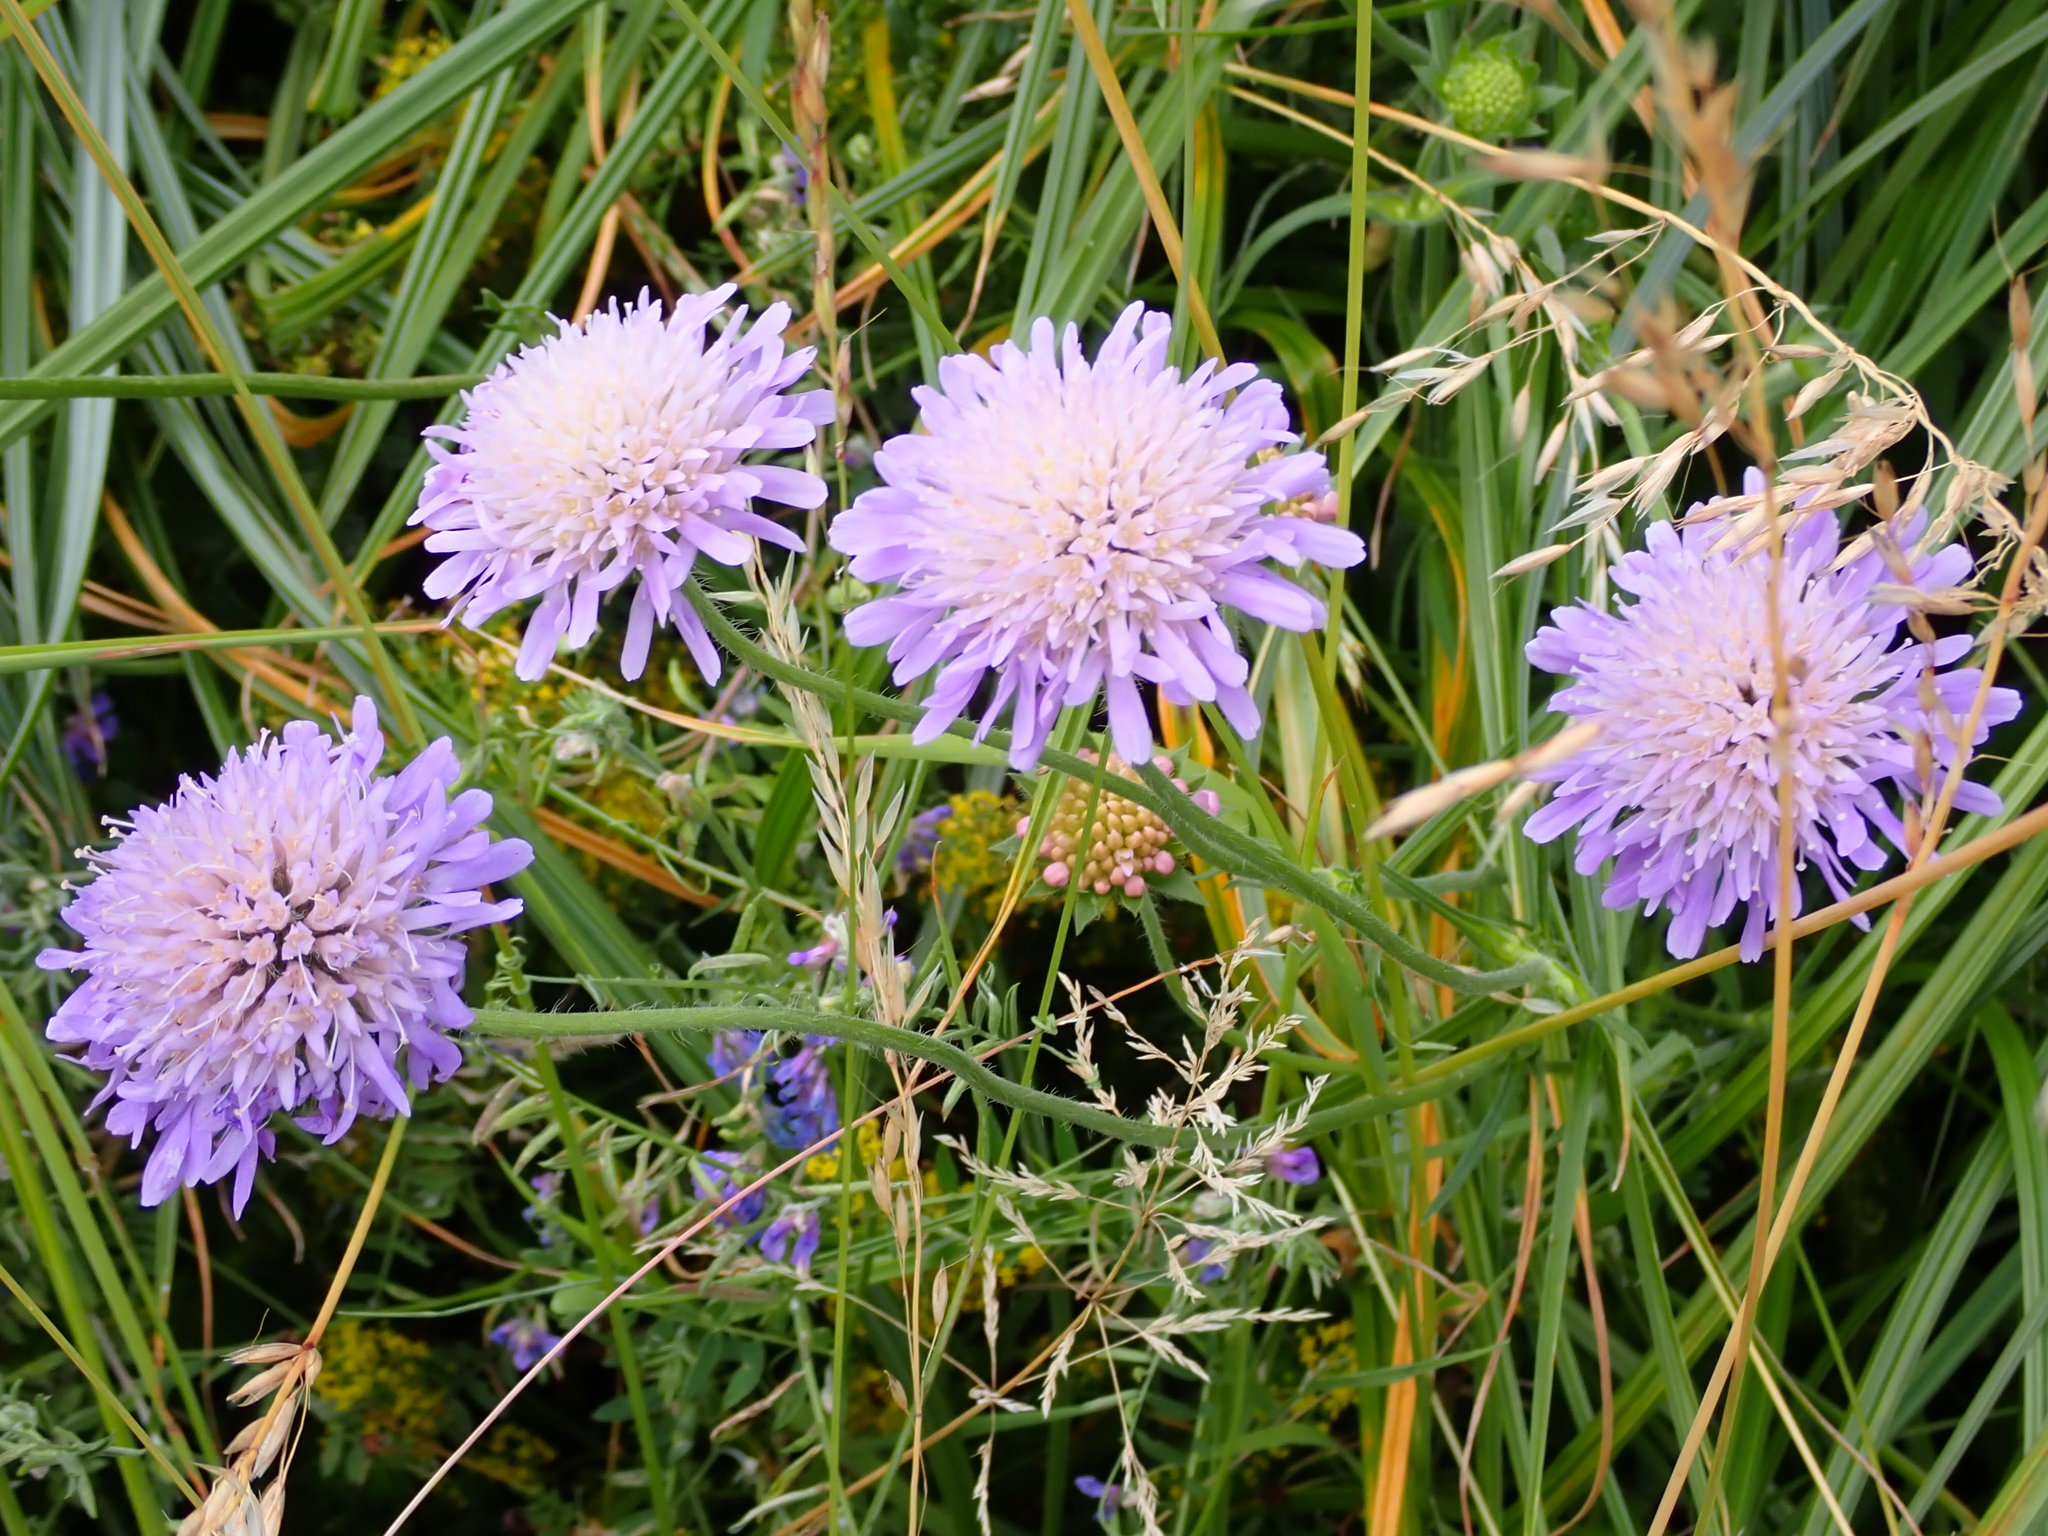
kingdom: Plantae
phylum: Tracheophyta
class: Magnoliopsida
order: Dipsacales
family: Caprifoliaceae
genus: Knautia
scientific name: Knautia arvensis
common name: Field scabiosa
